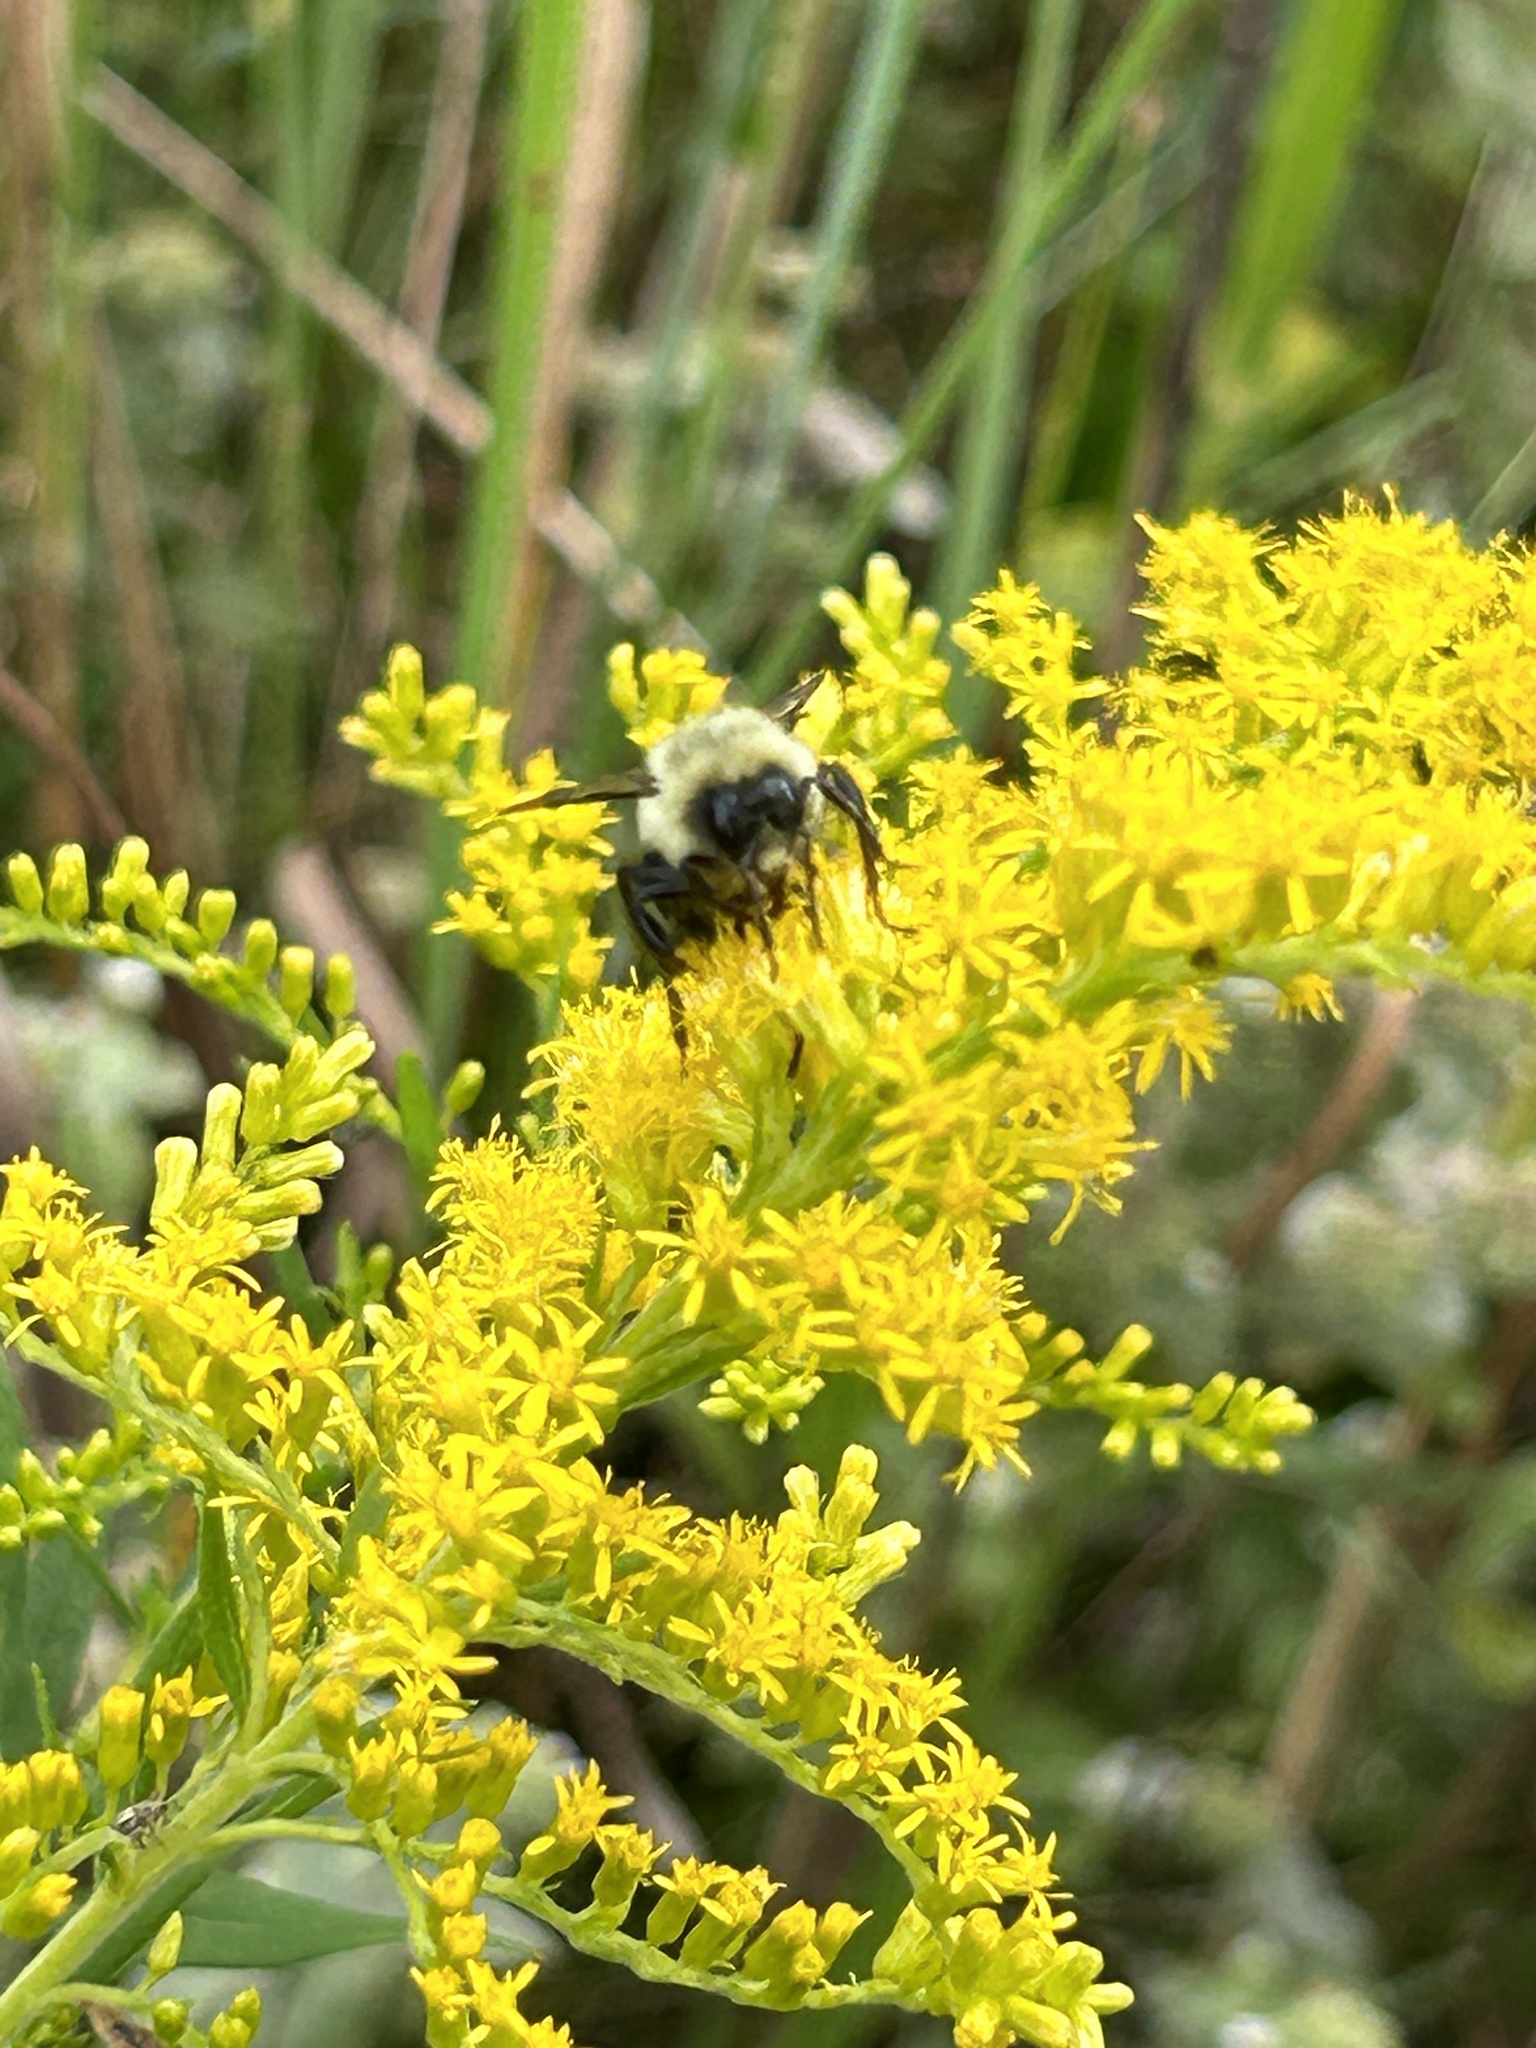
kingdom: Animalia
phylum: Arthropoda
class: Insecta
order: Hymenoptera
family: Apidae
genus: Bombus
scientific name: Bombus impatiens
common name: Common eastern bumble bee
